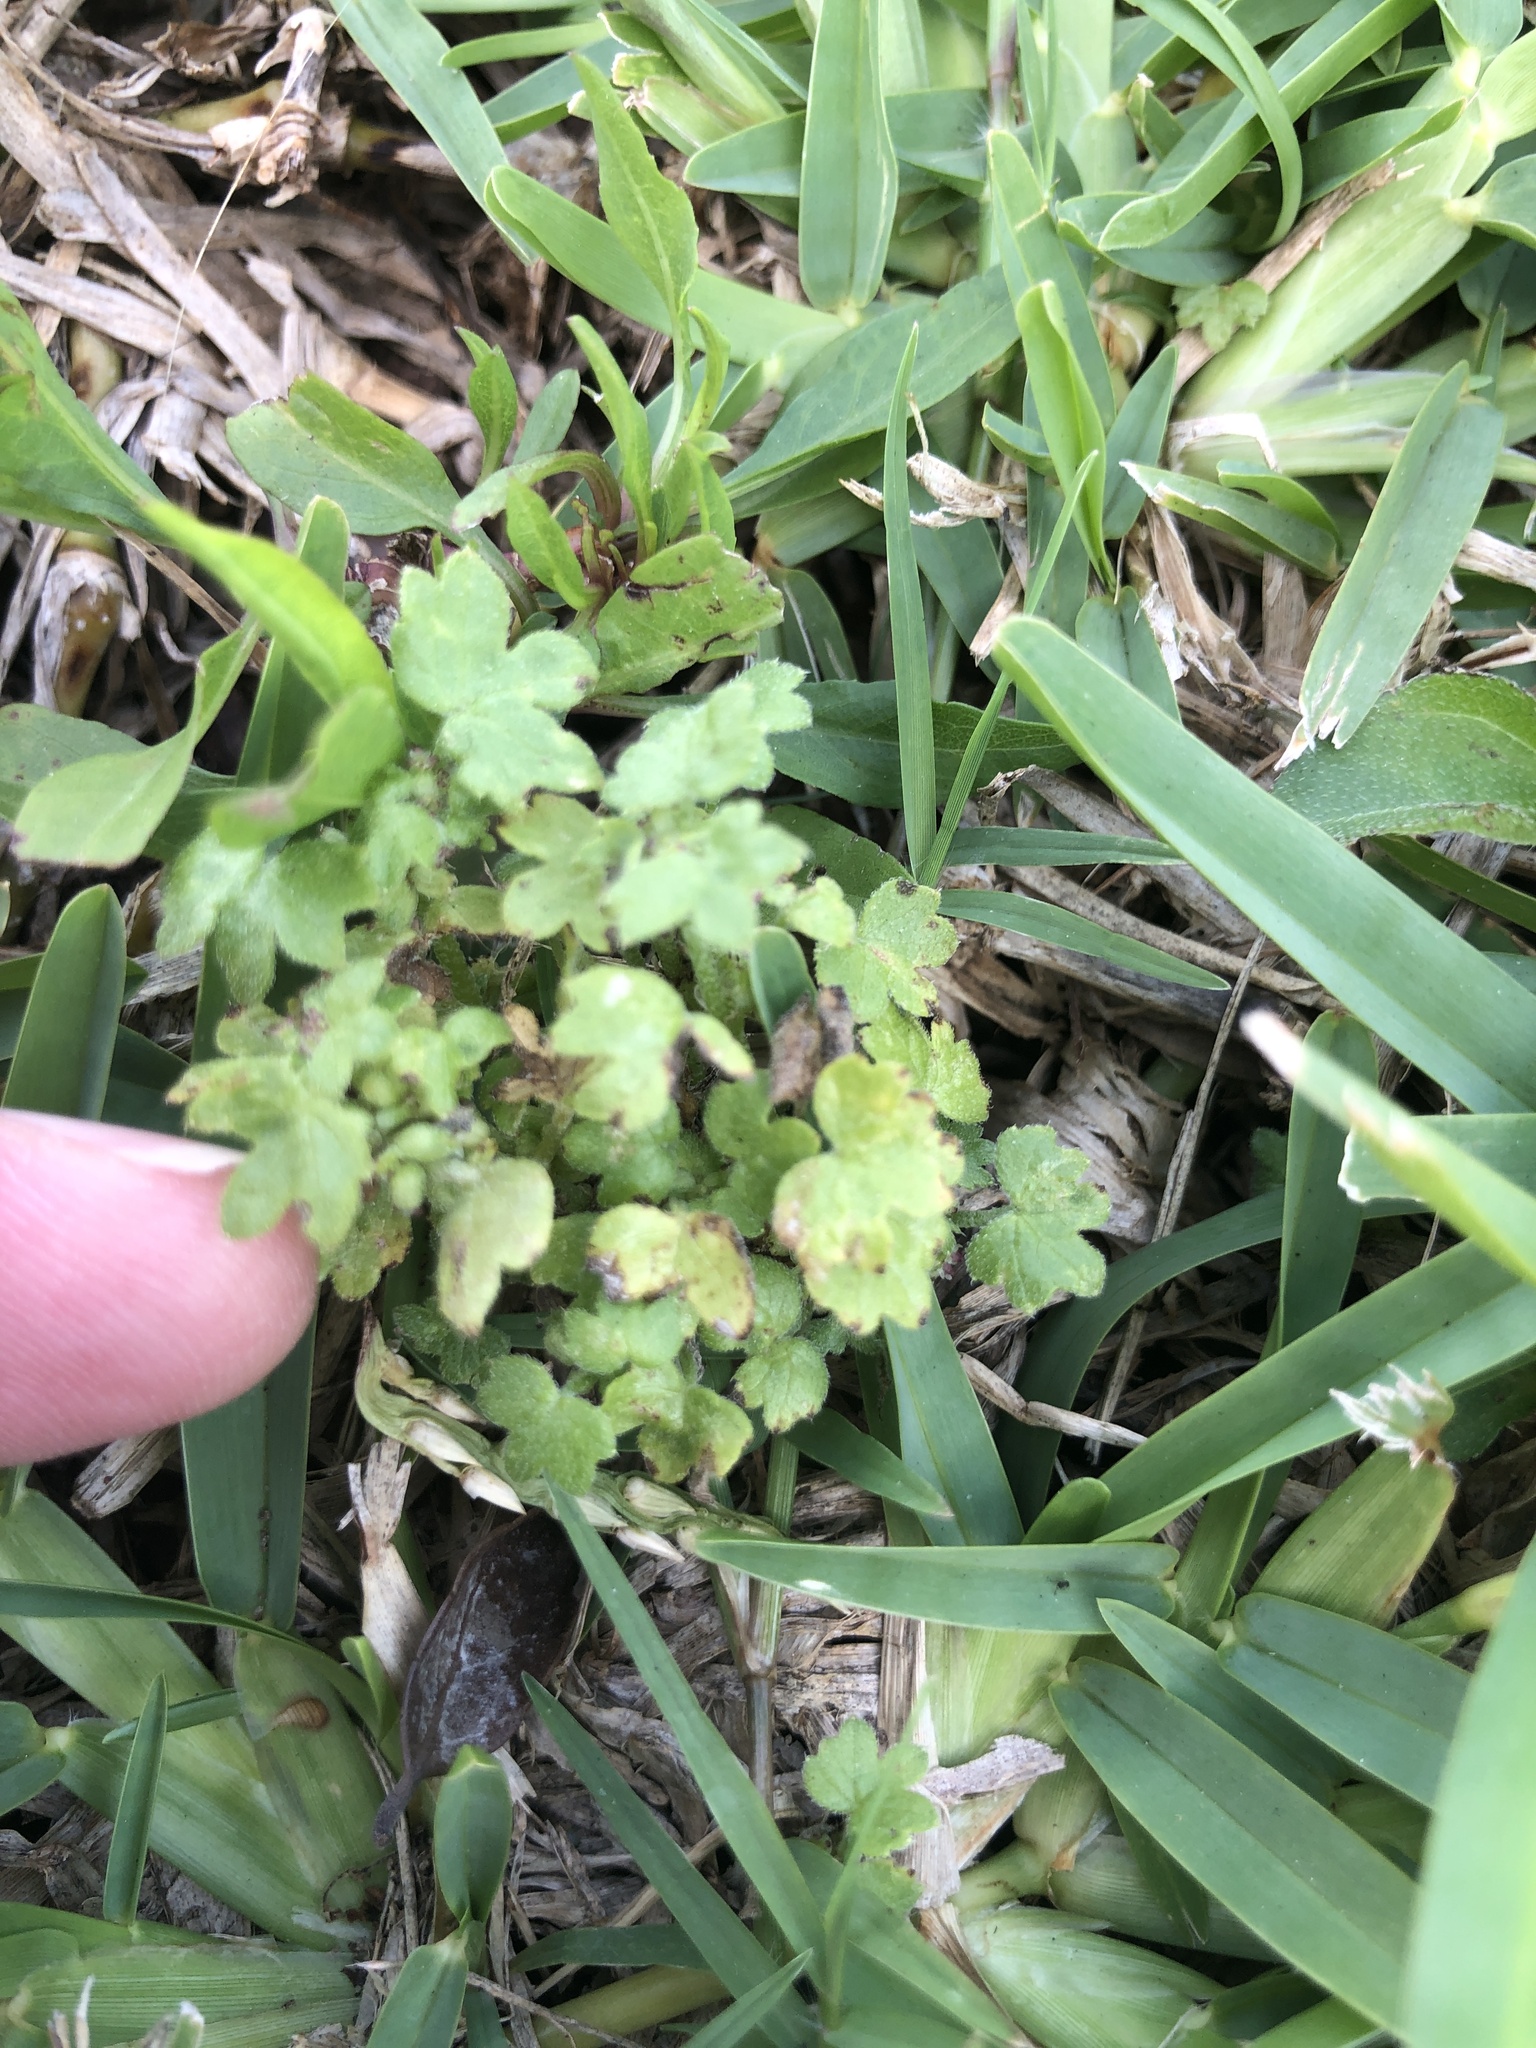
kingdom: Plantae
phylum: Tracheophyta
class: Magnoliopsida
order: Apiales
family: Apiaceae
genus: Bowlesia
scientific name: Bowlesia incana
